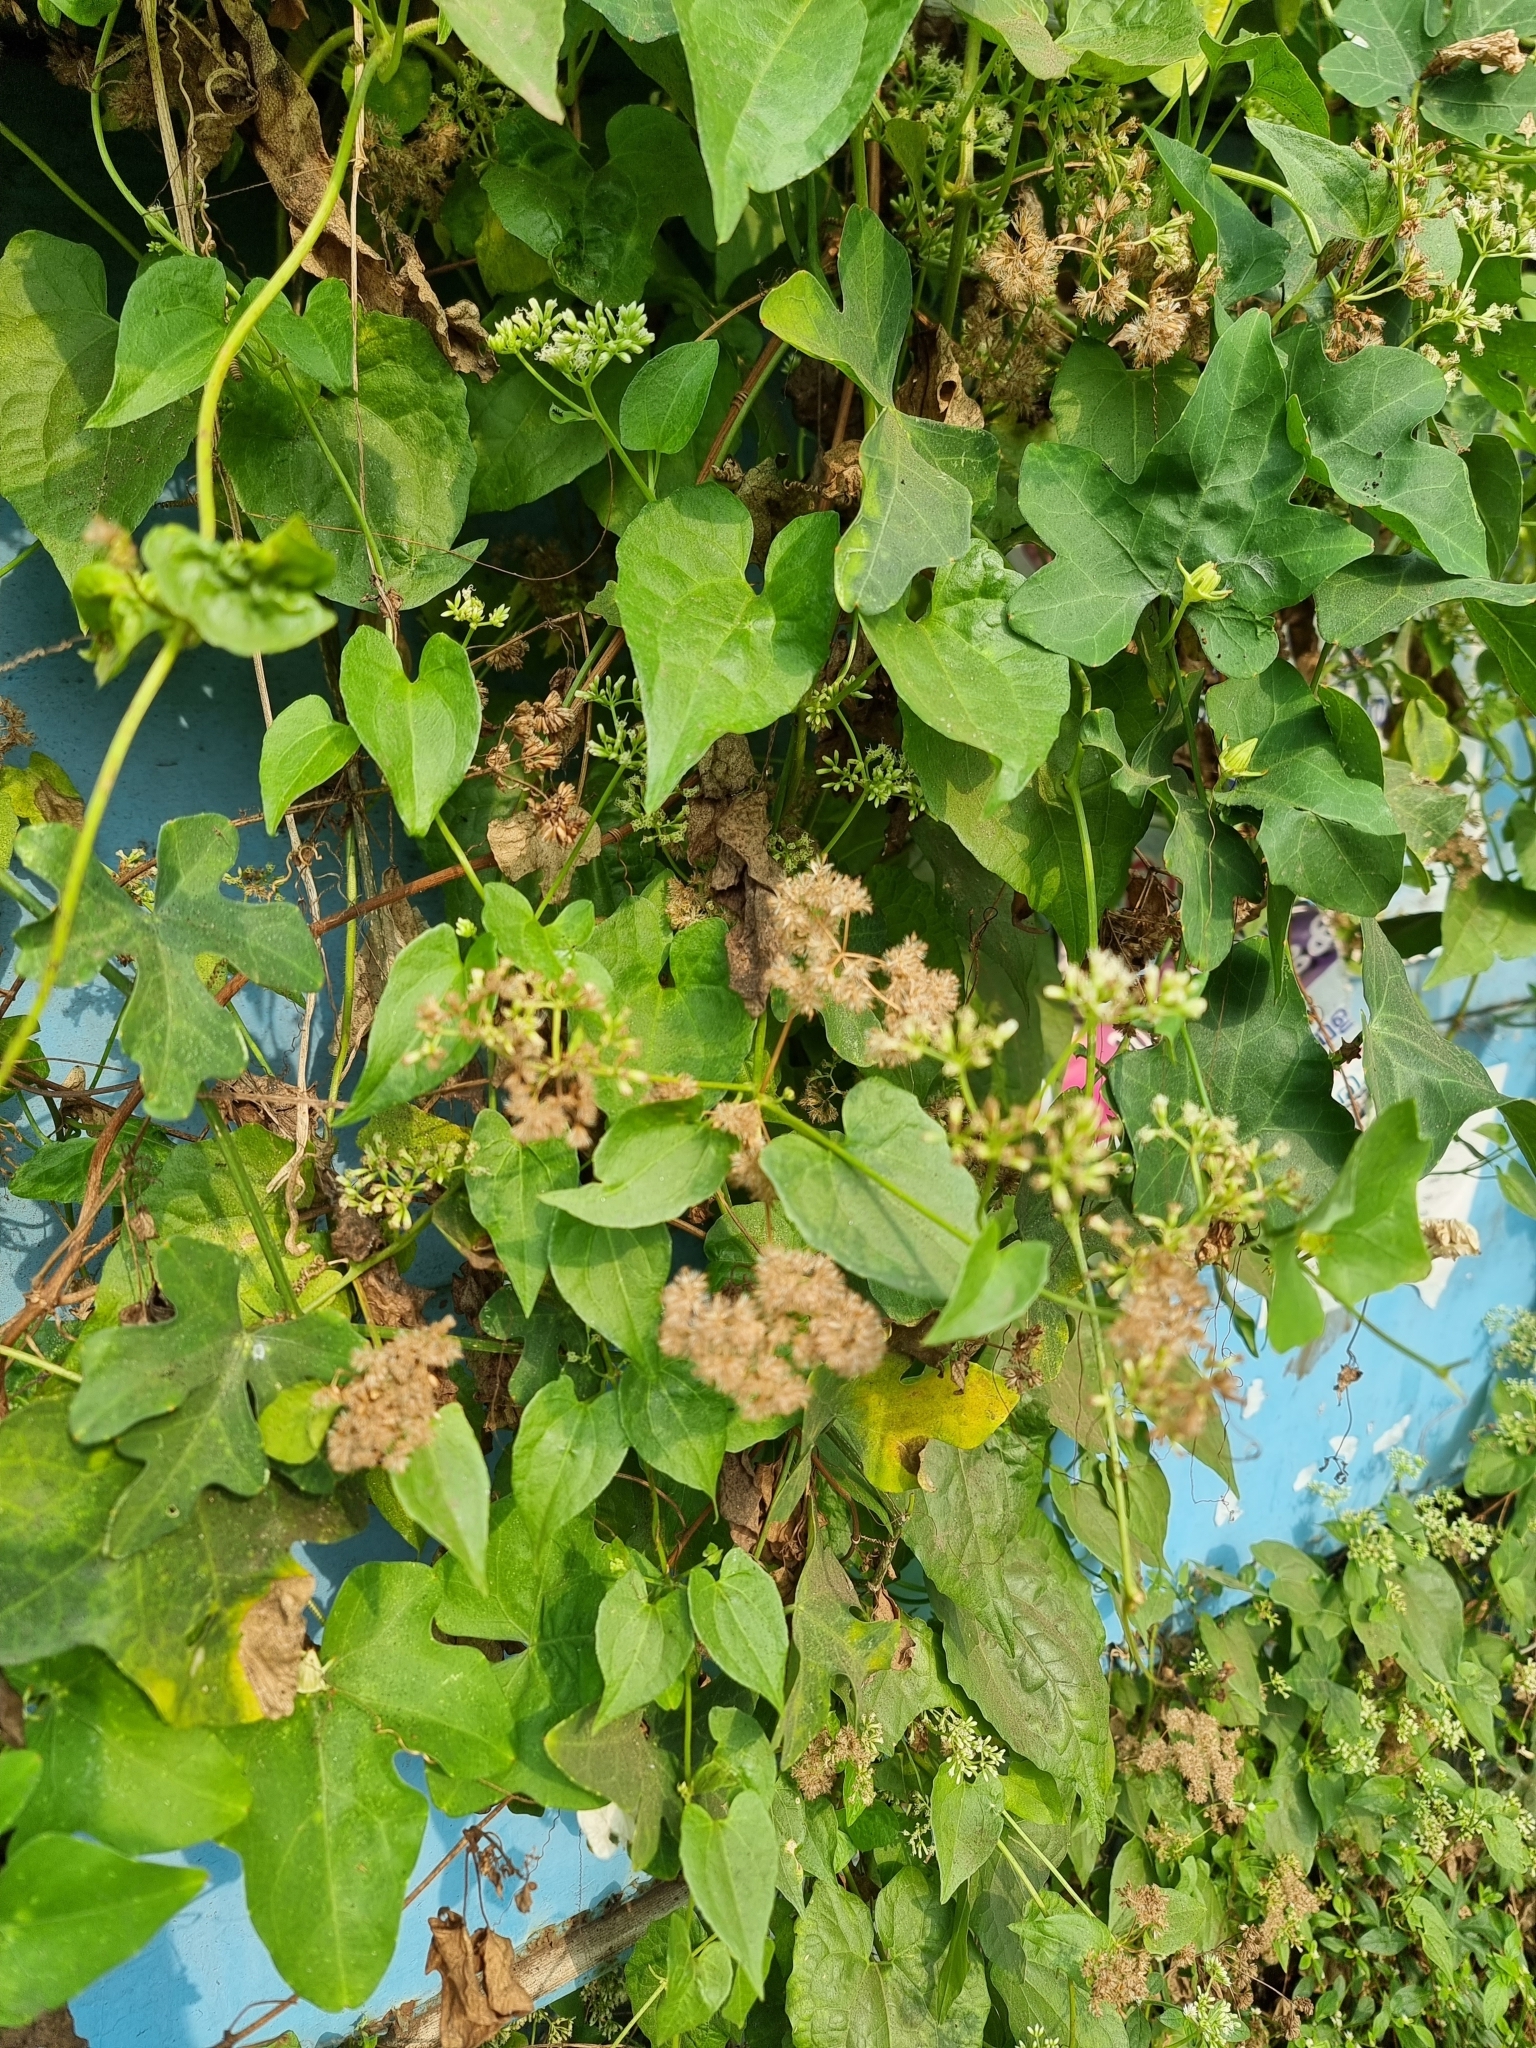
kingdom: Plantae
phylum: Tracheophyta
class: Magnoliopsida
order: Asterales
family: Asteraceae
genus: Mikania
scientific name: Mikania micrantha
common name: Mile-a-minute
